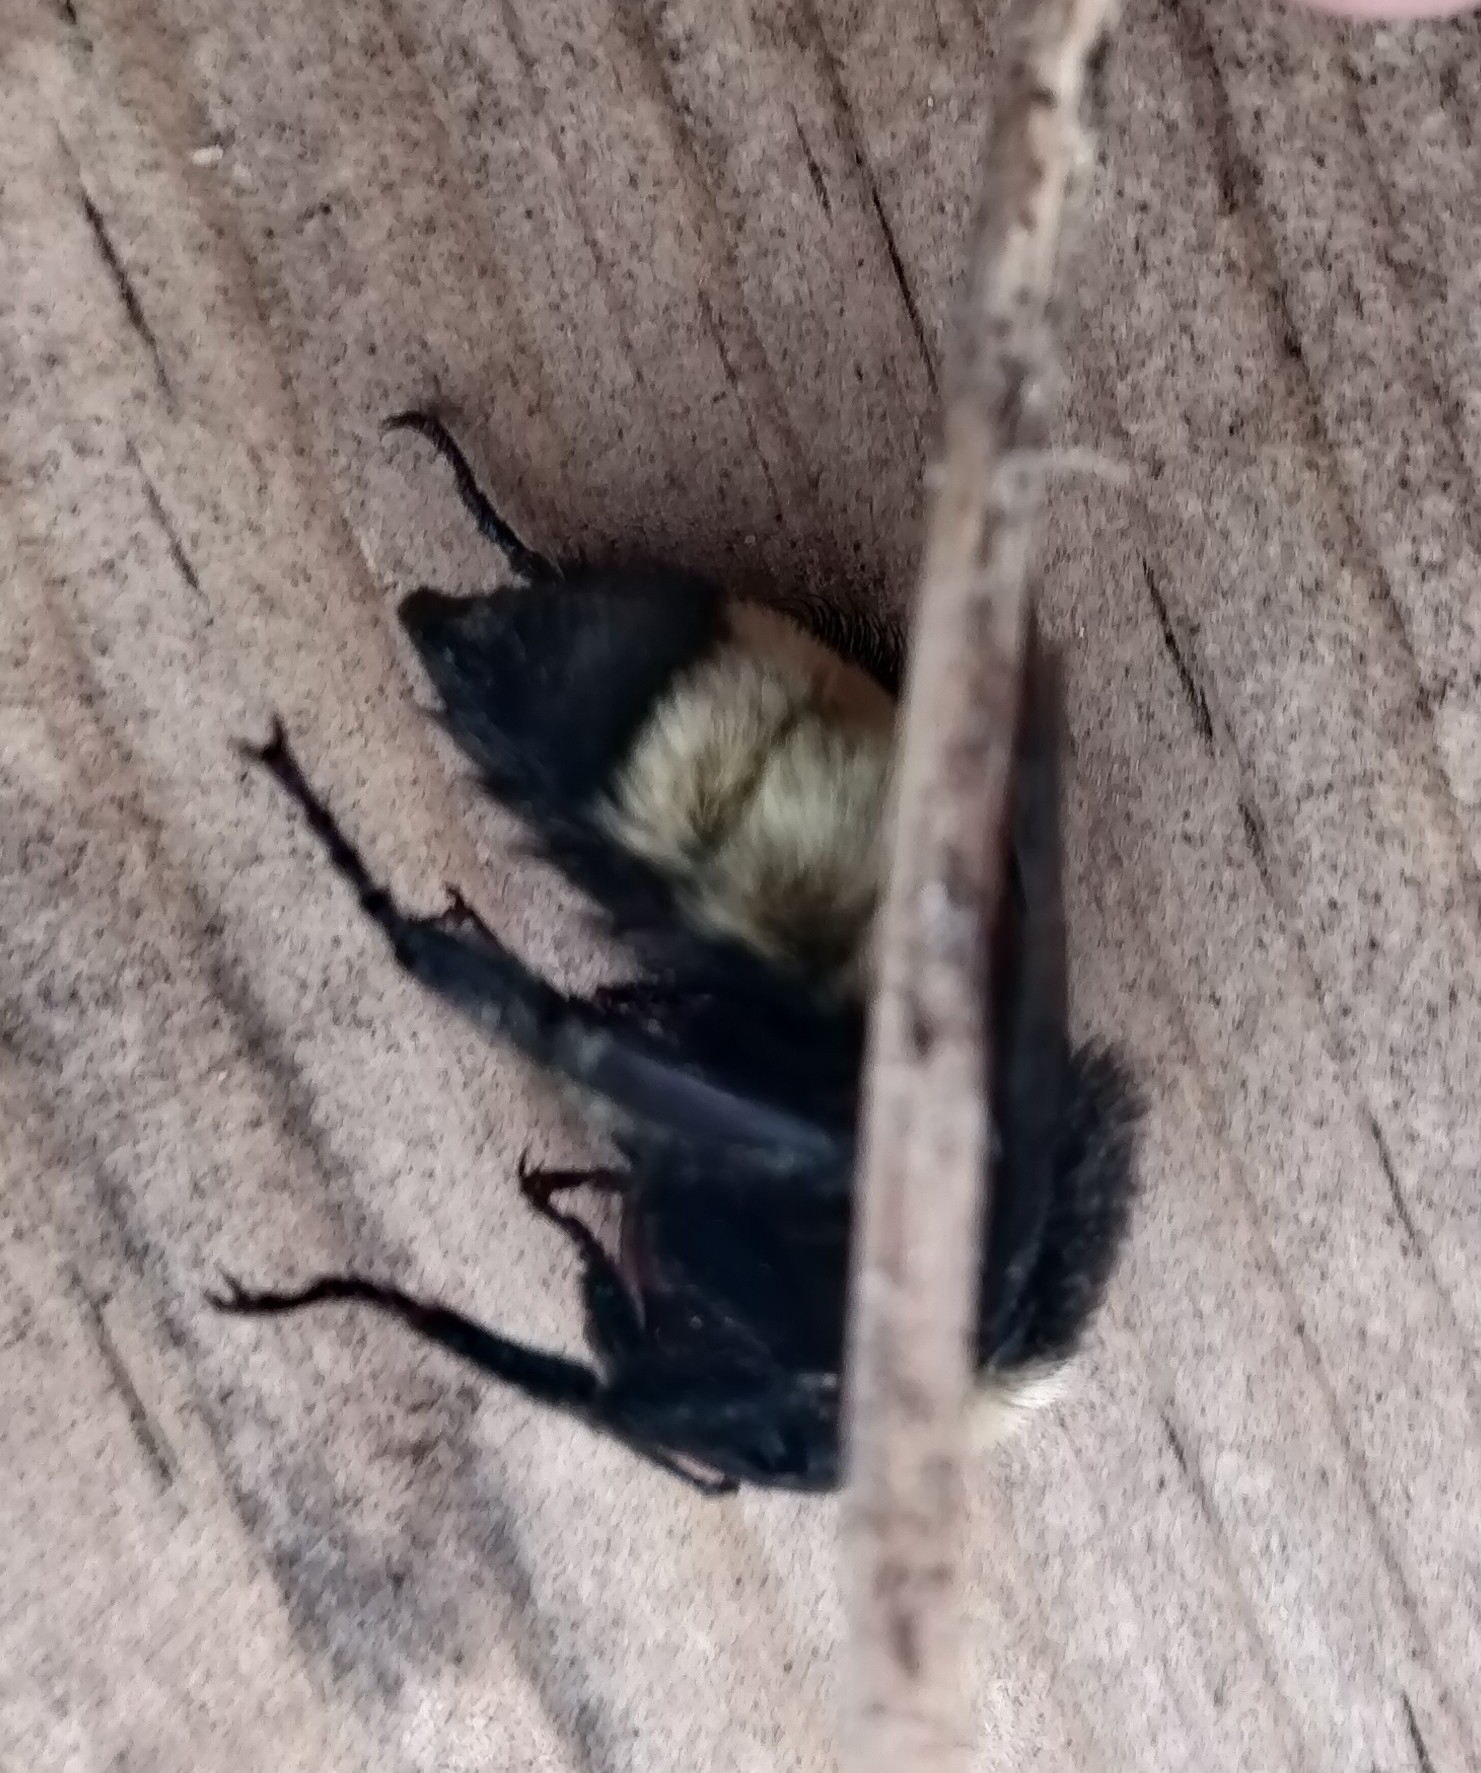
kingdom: Animalia
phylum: Arthropoda
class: Insecta
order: Hymenoptera
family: Apidae
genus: Bombus
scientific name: Bombus pensylvanicus
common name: Bumble bee
